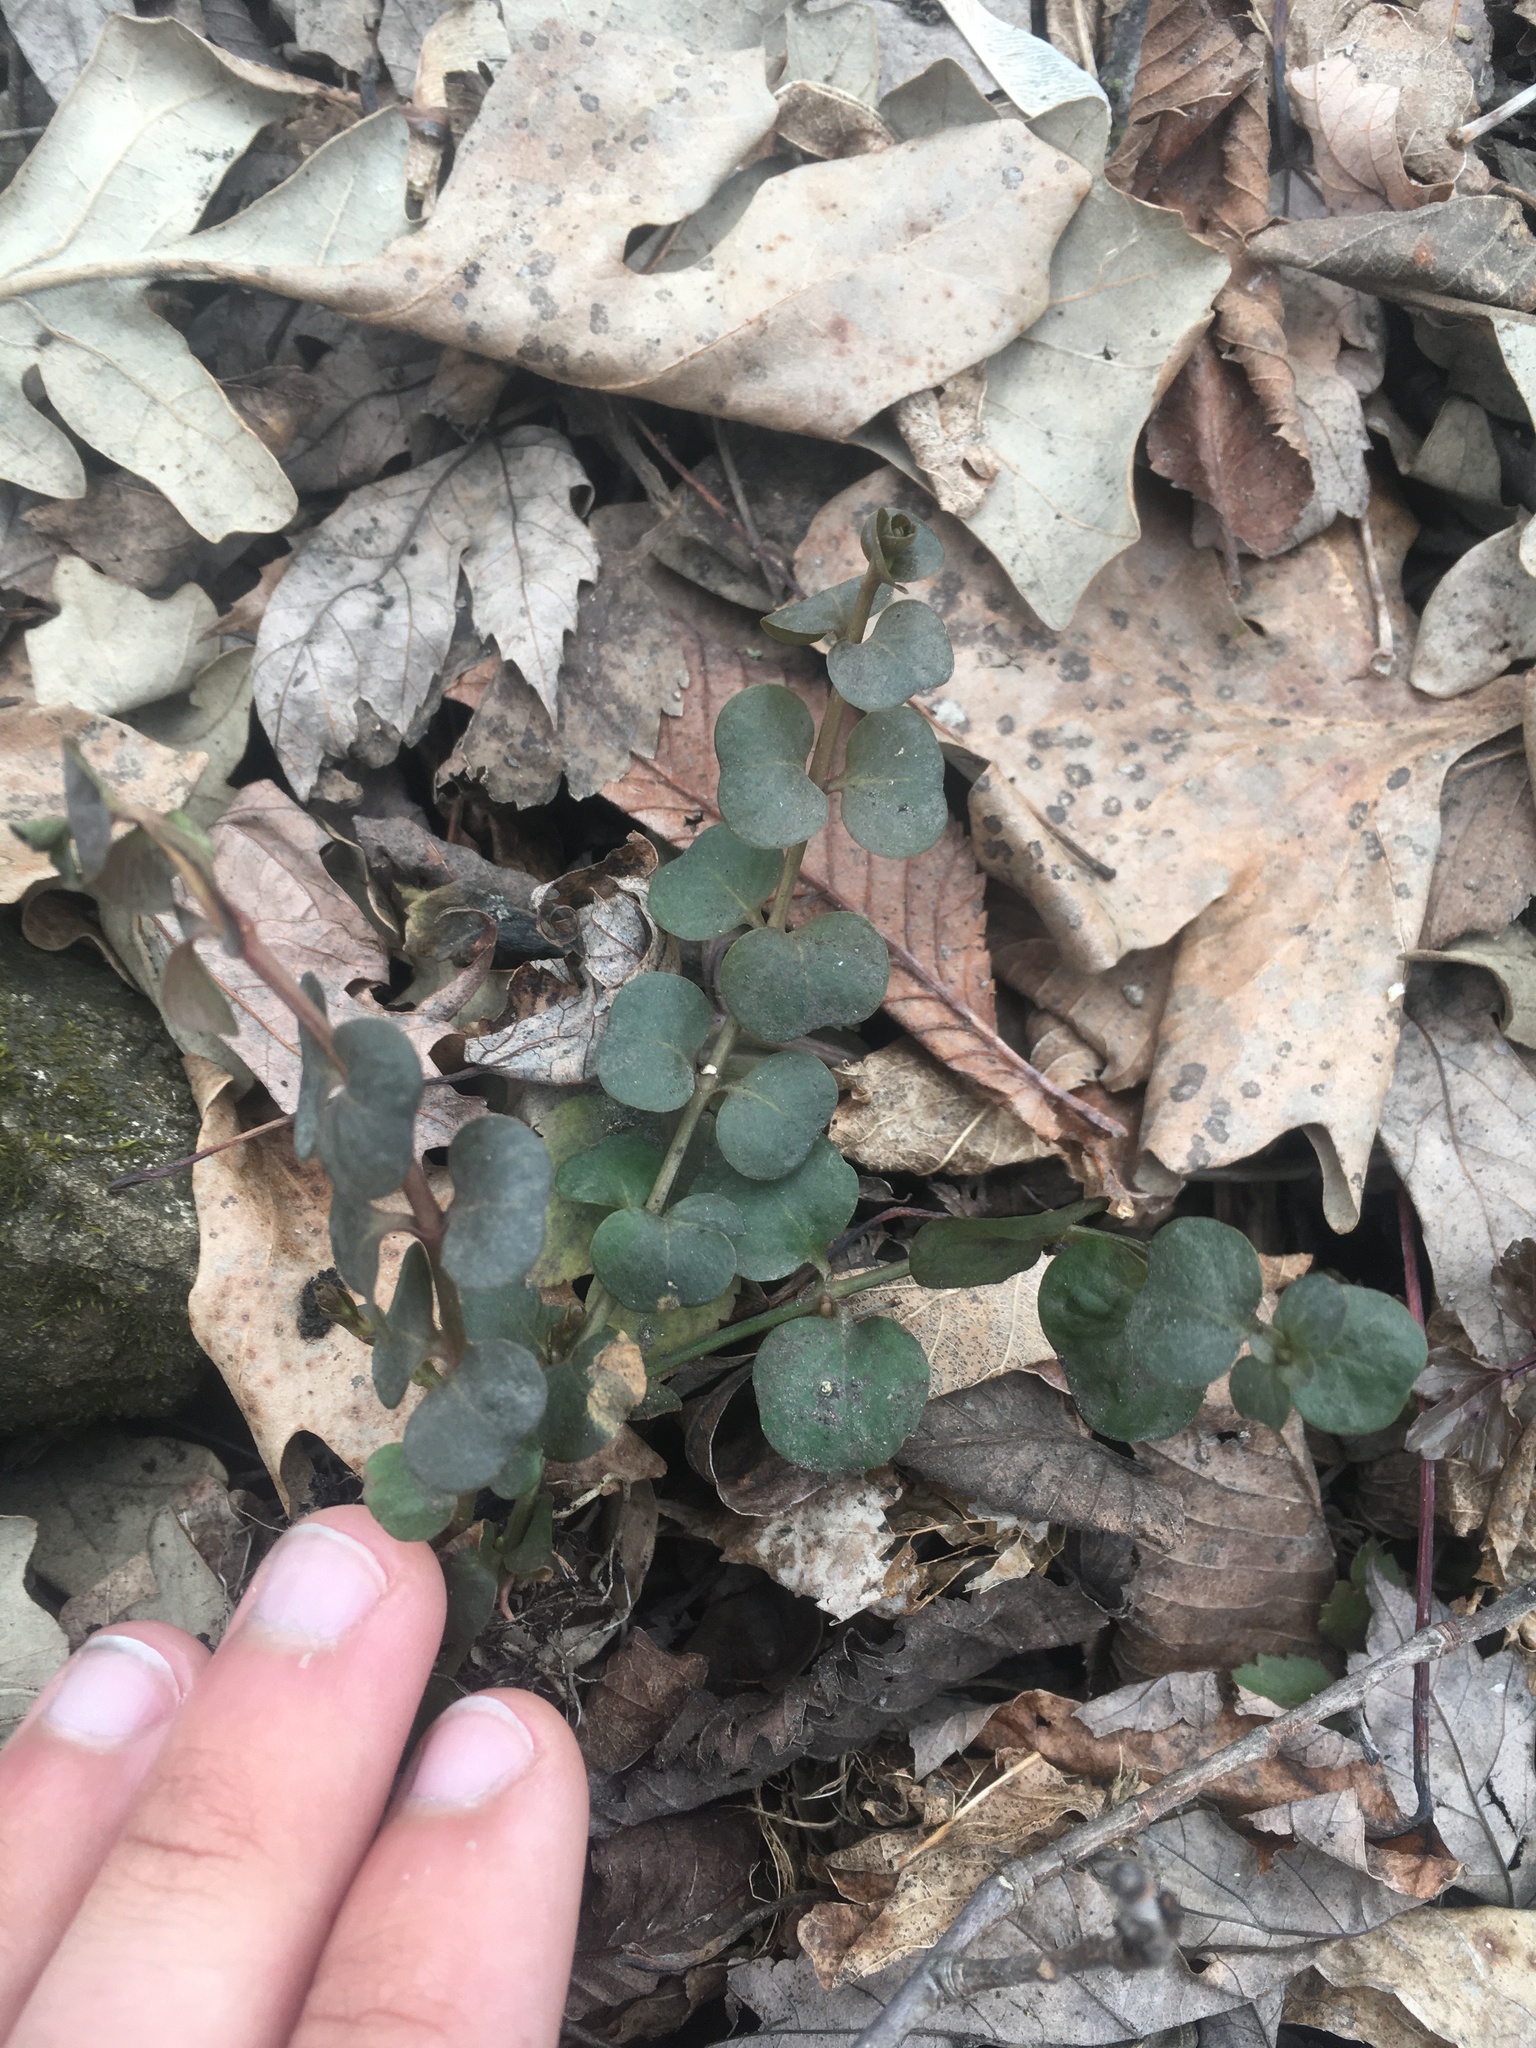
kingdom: Plantae
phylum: Tracheophyta
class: Magnoliopsida
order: Ericales
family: Primulaceae
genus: Lysimachia
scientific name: Lysimachia nummularia
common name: Moneywort
